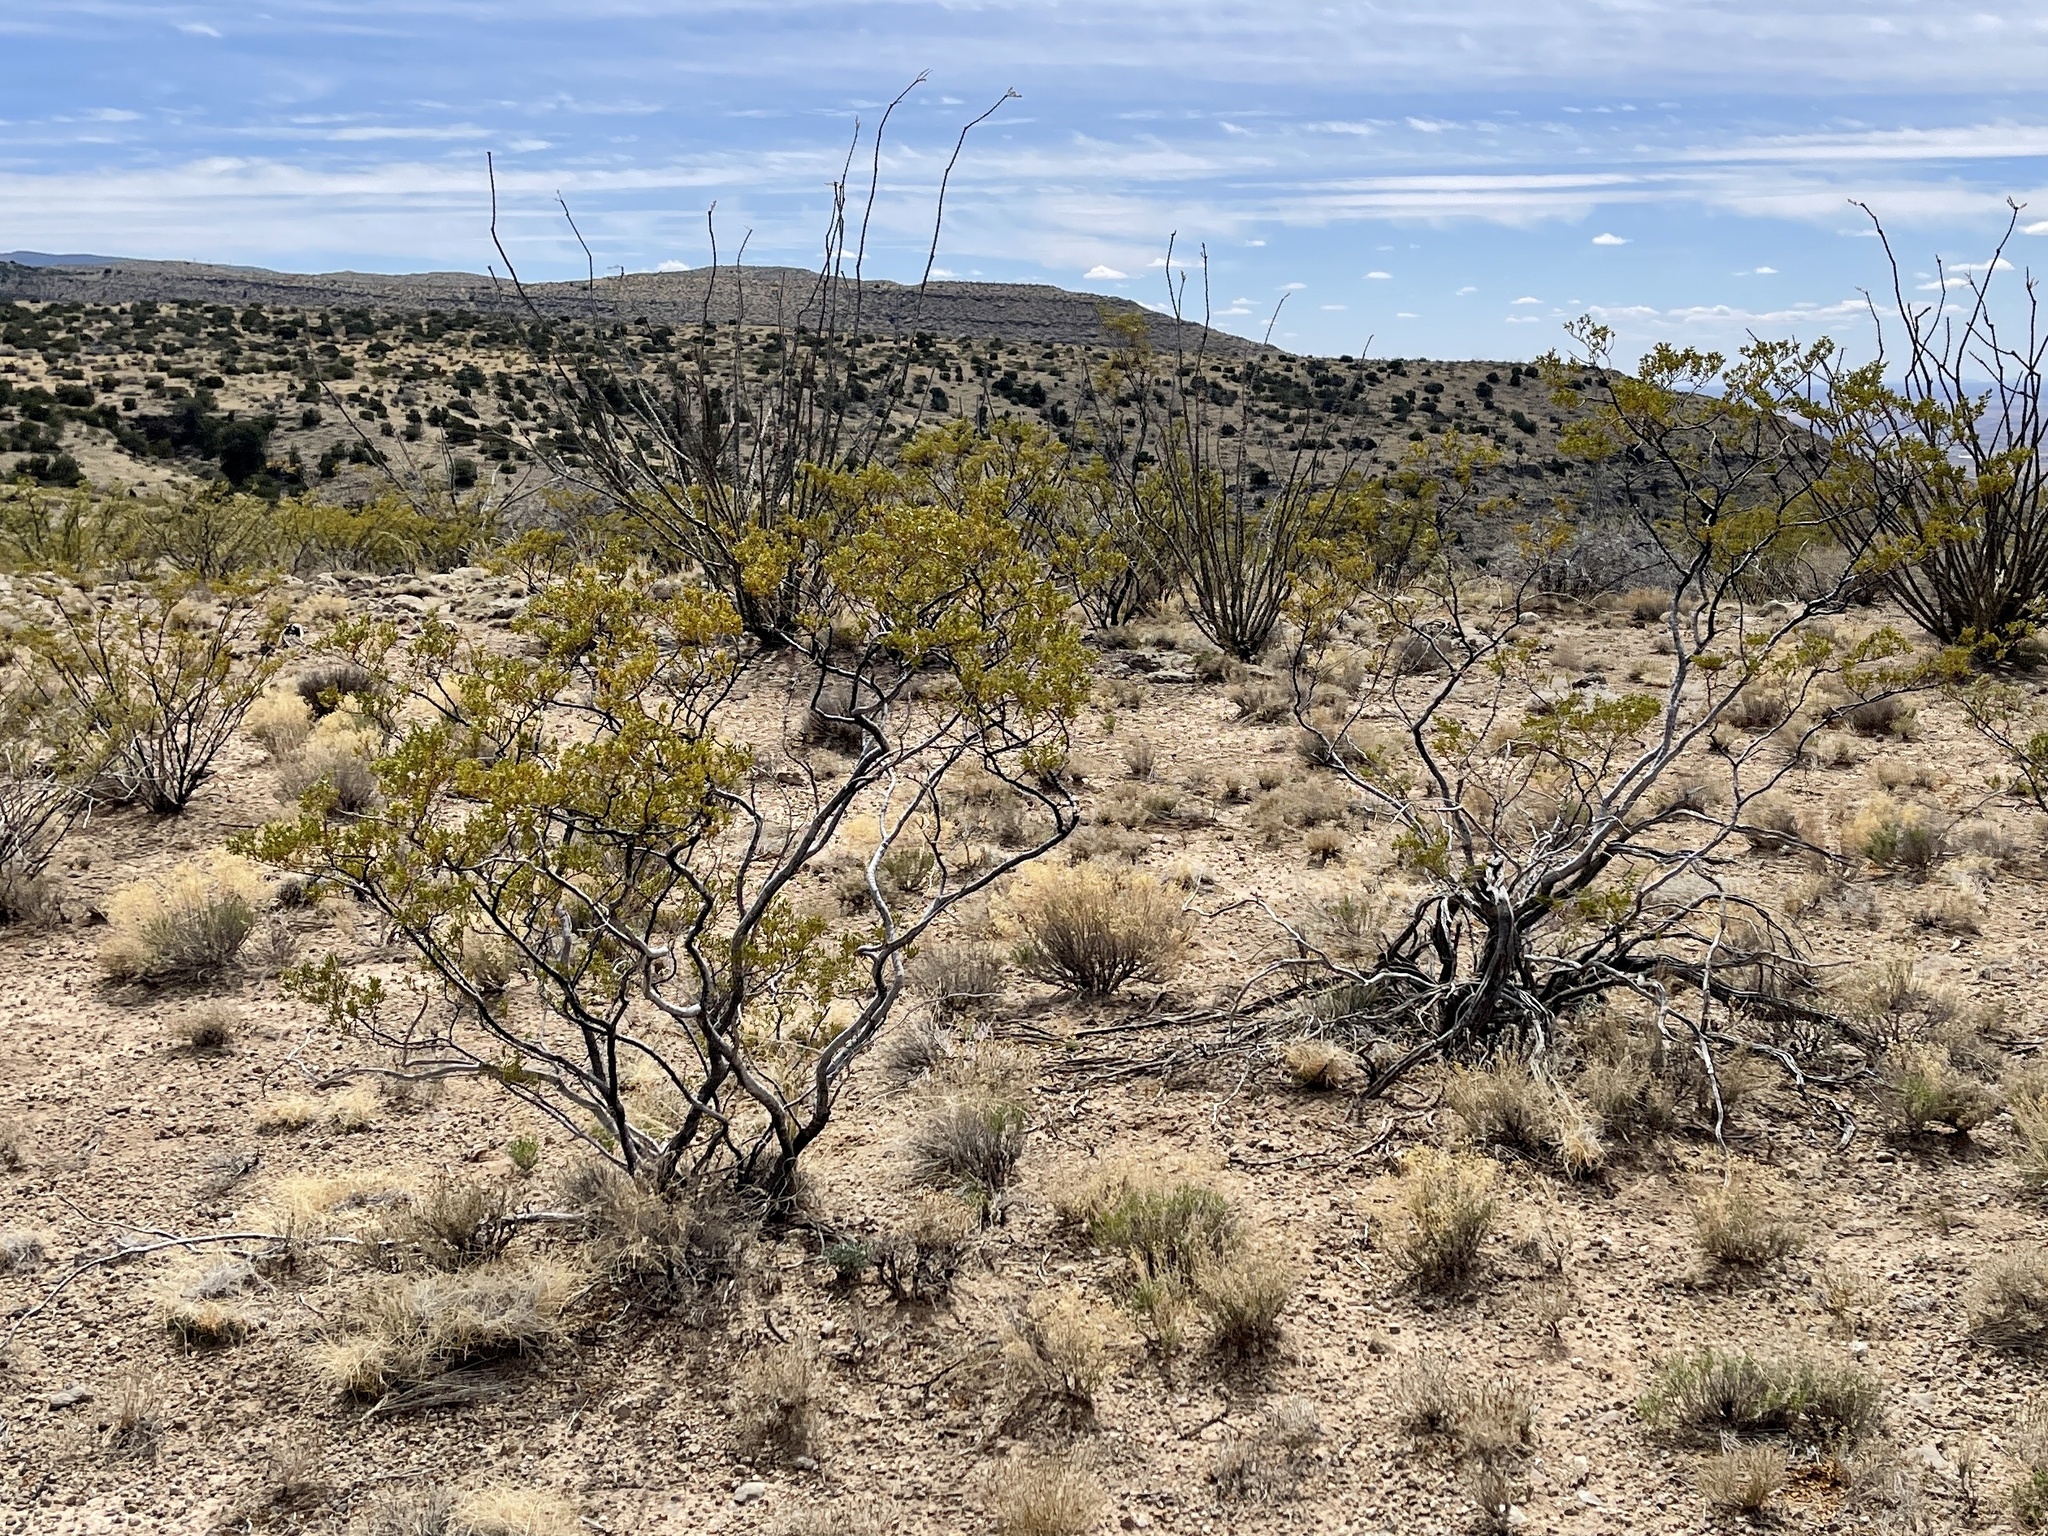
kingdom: Plantae
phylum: Tracheophyta
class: Magnoliopsida
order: Zygophyllales
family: Zygophyllaceae
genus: Larrea
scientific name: Larrea tridentata
